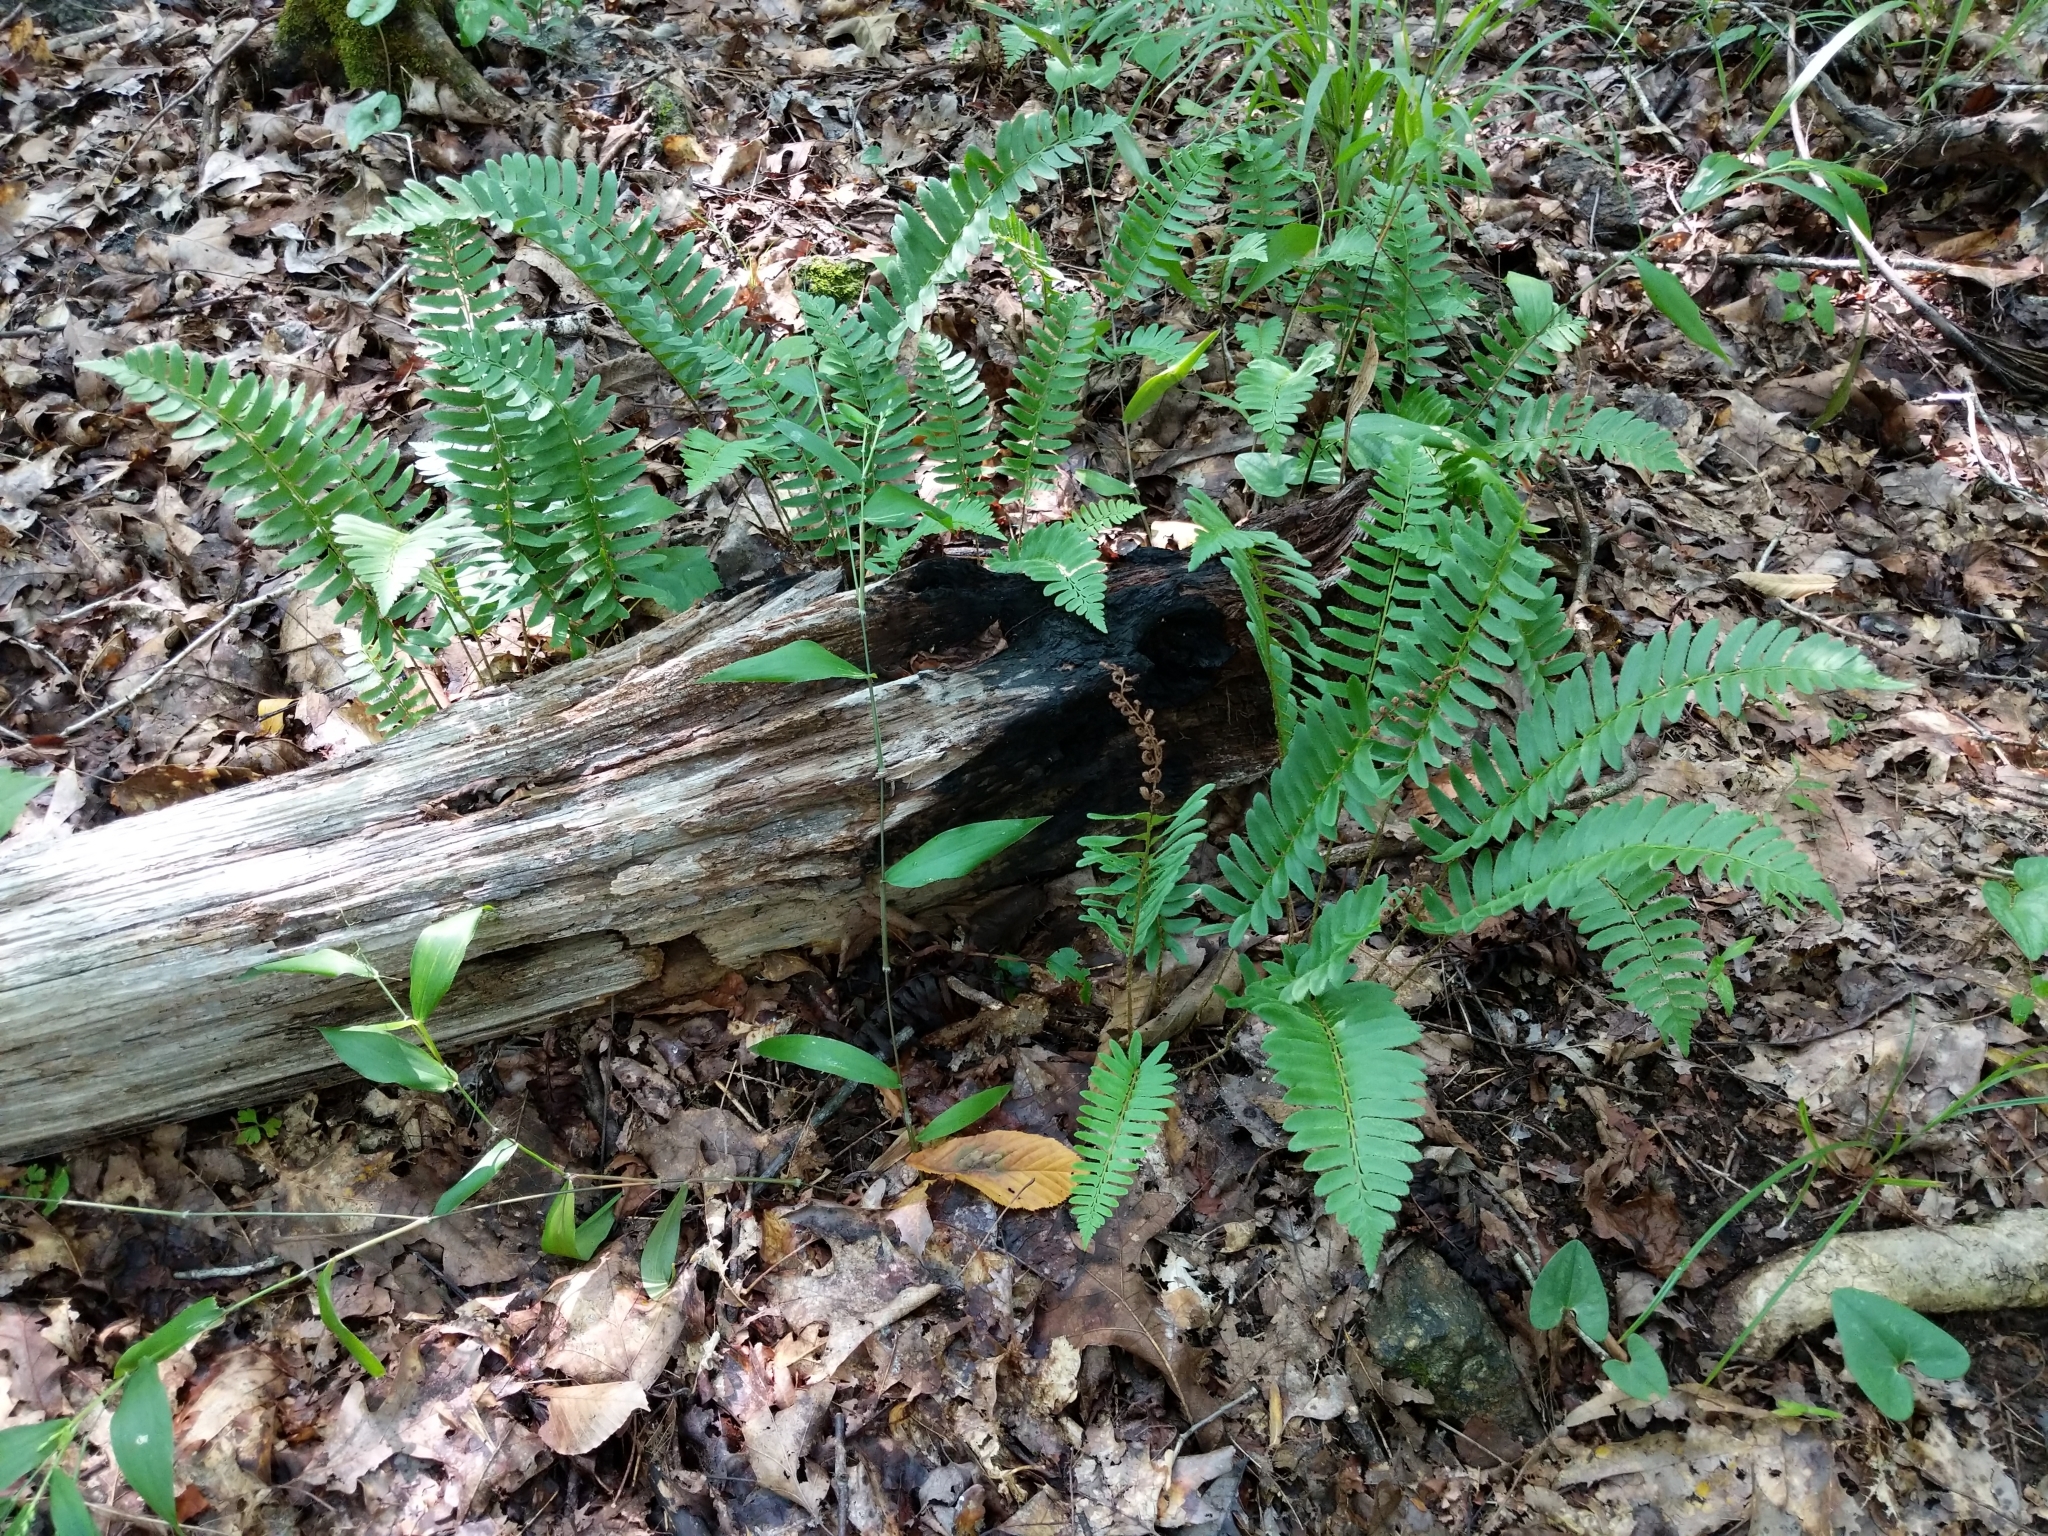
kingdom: Plantae
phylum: Tracheophyta
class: Polypodiopsida
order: Polypodiales
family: Dryopteridaceae
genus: Polystichum
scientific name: Polystichum acrostichoides
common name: Christmas fern
